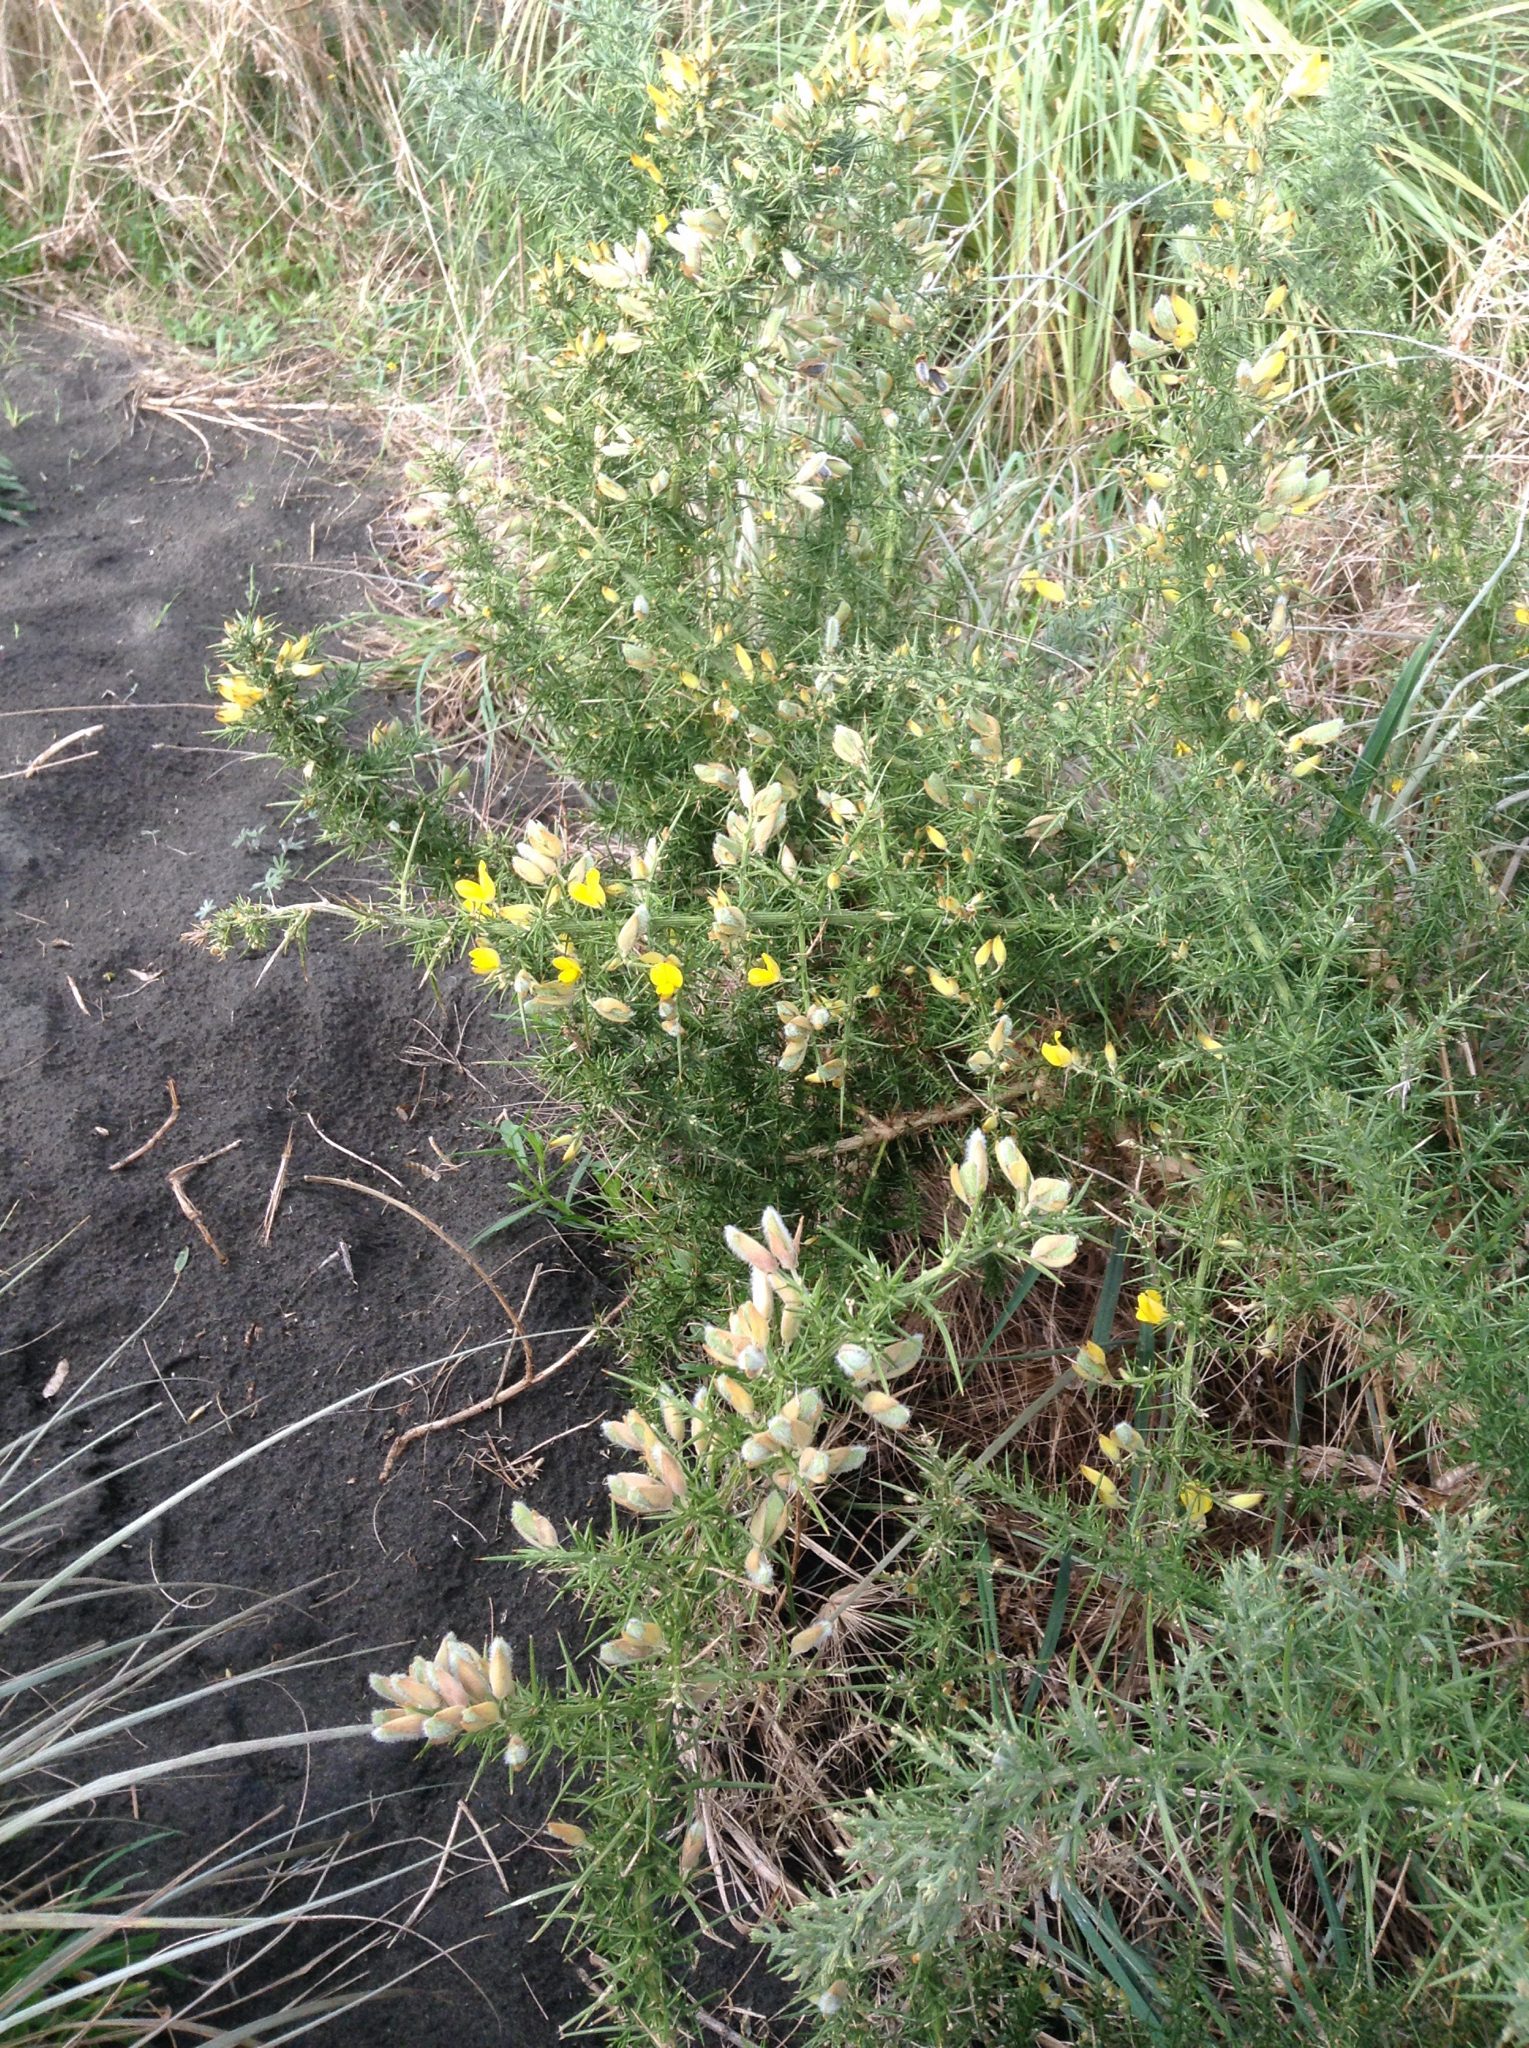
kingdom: Plantae
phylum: Tracheophyta
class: Magnoliopsida
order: Fabales
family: Fabaceae
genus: Ulex
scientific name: Ulex europaeus
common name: Common gorse
